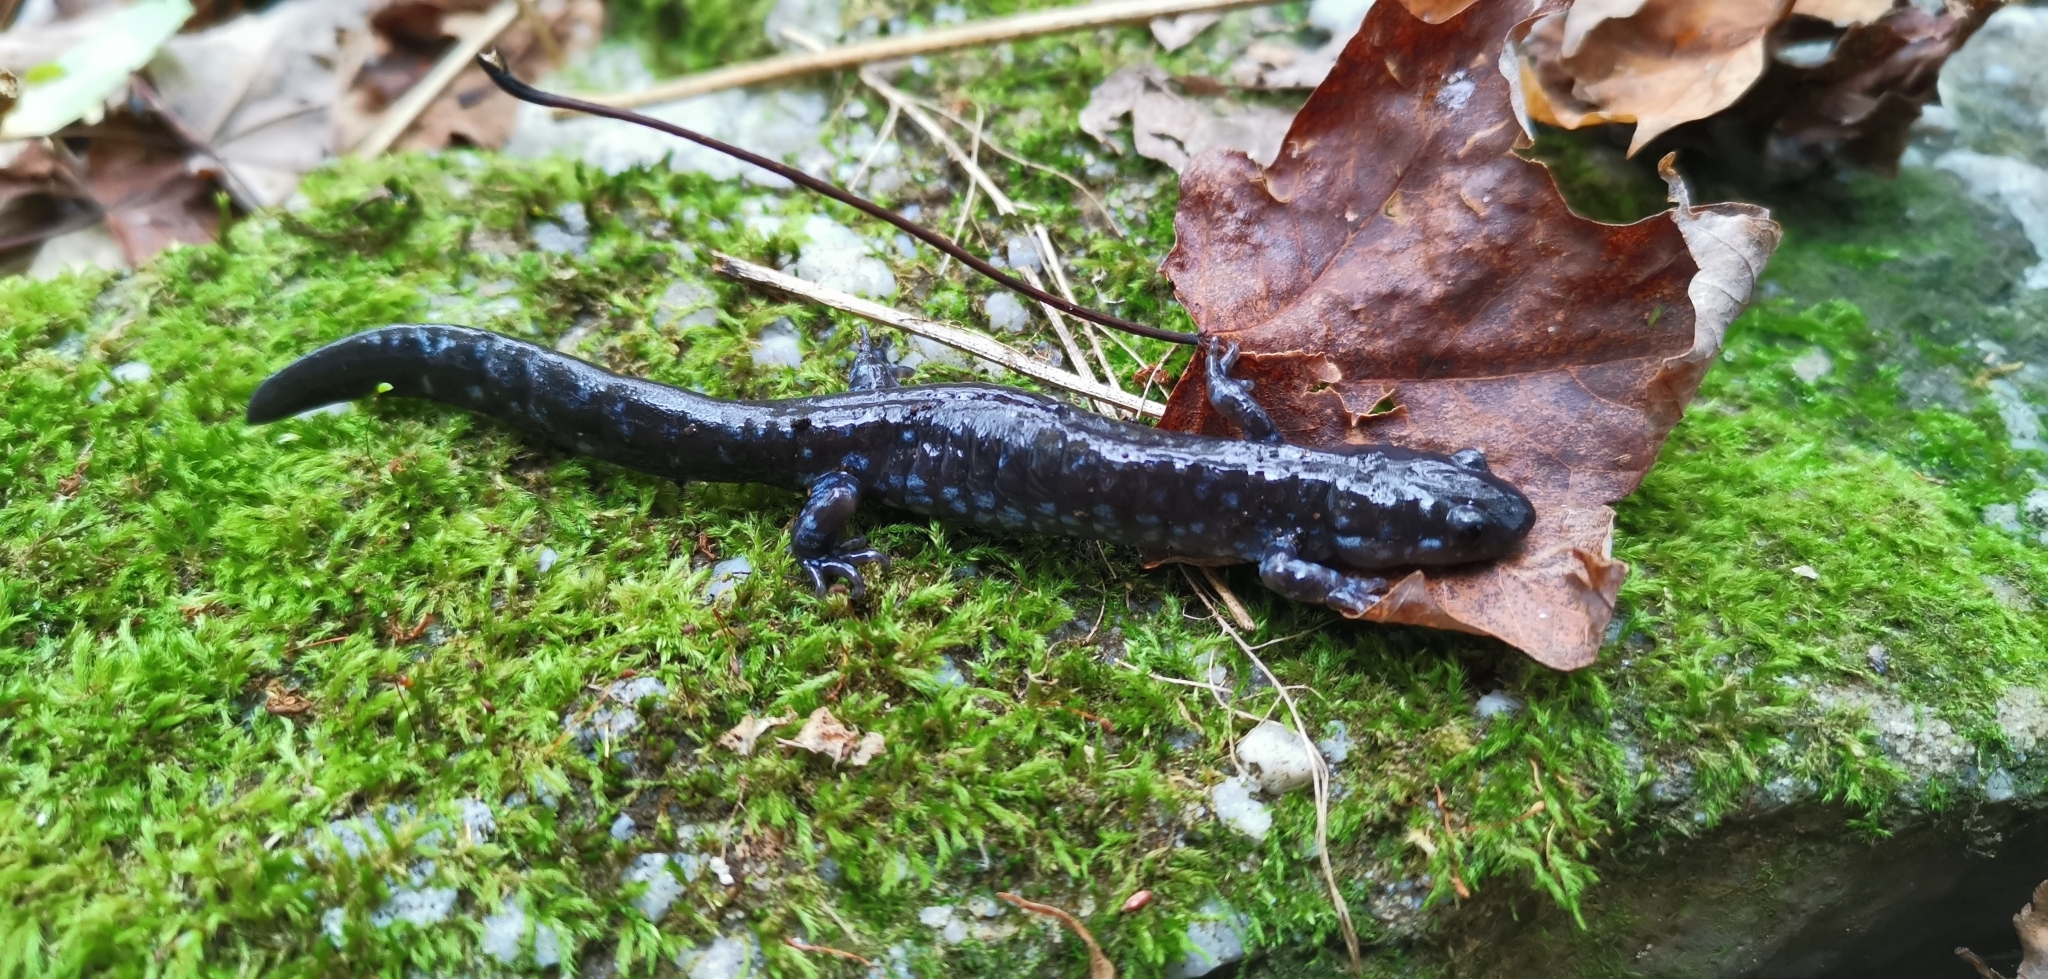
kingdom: Animalia
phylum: Chordata
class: Amphibia
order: Caudata
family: Ambystomatidae
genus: Ambystoma
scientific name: Ambystoma laterale
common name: Blue-spotted salamander
